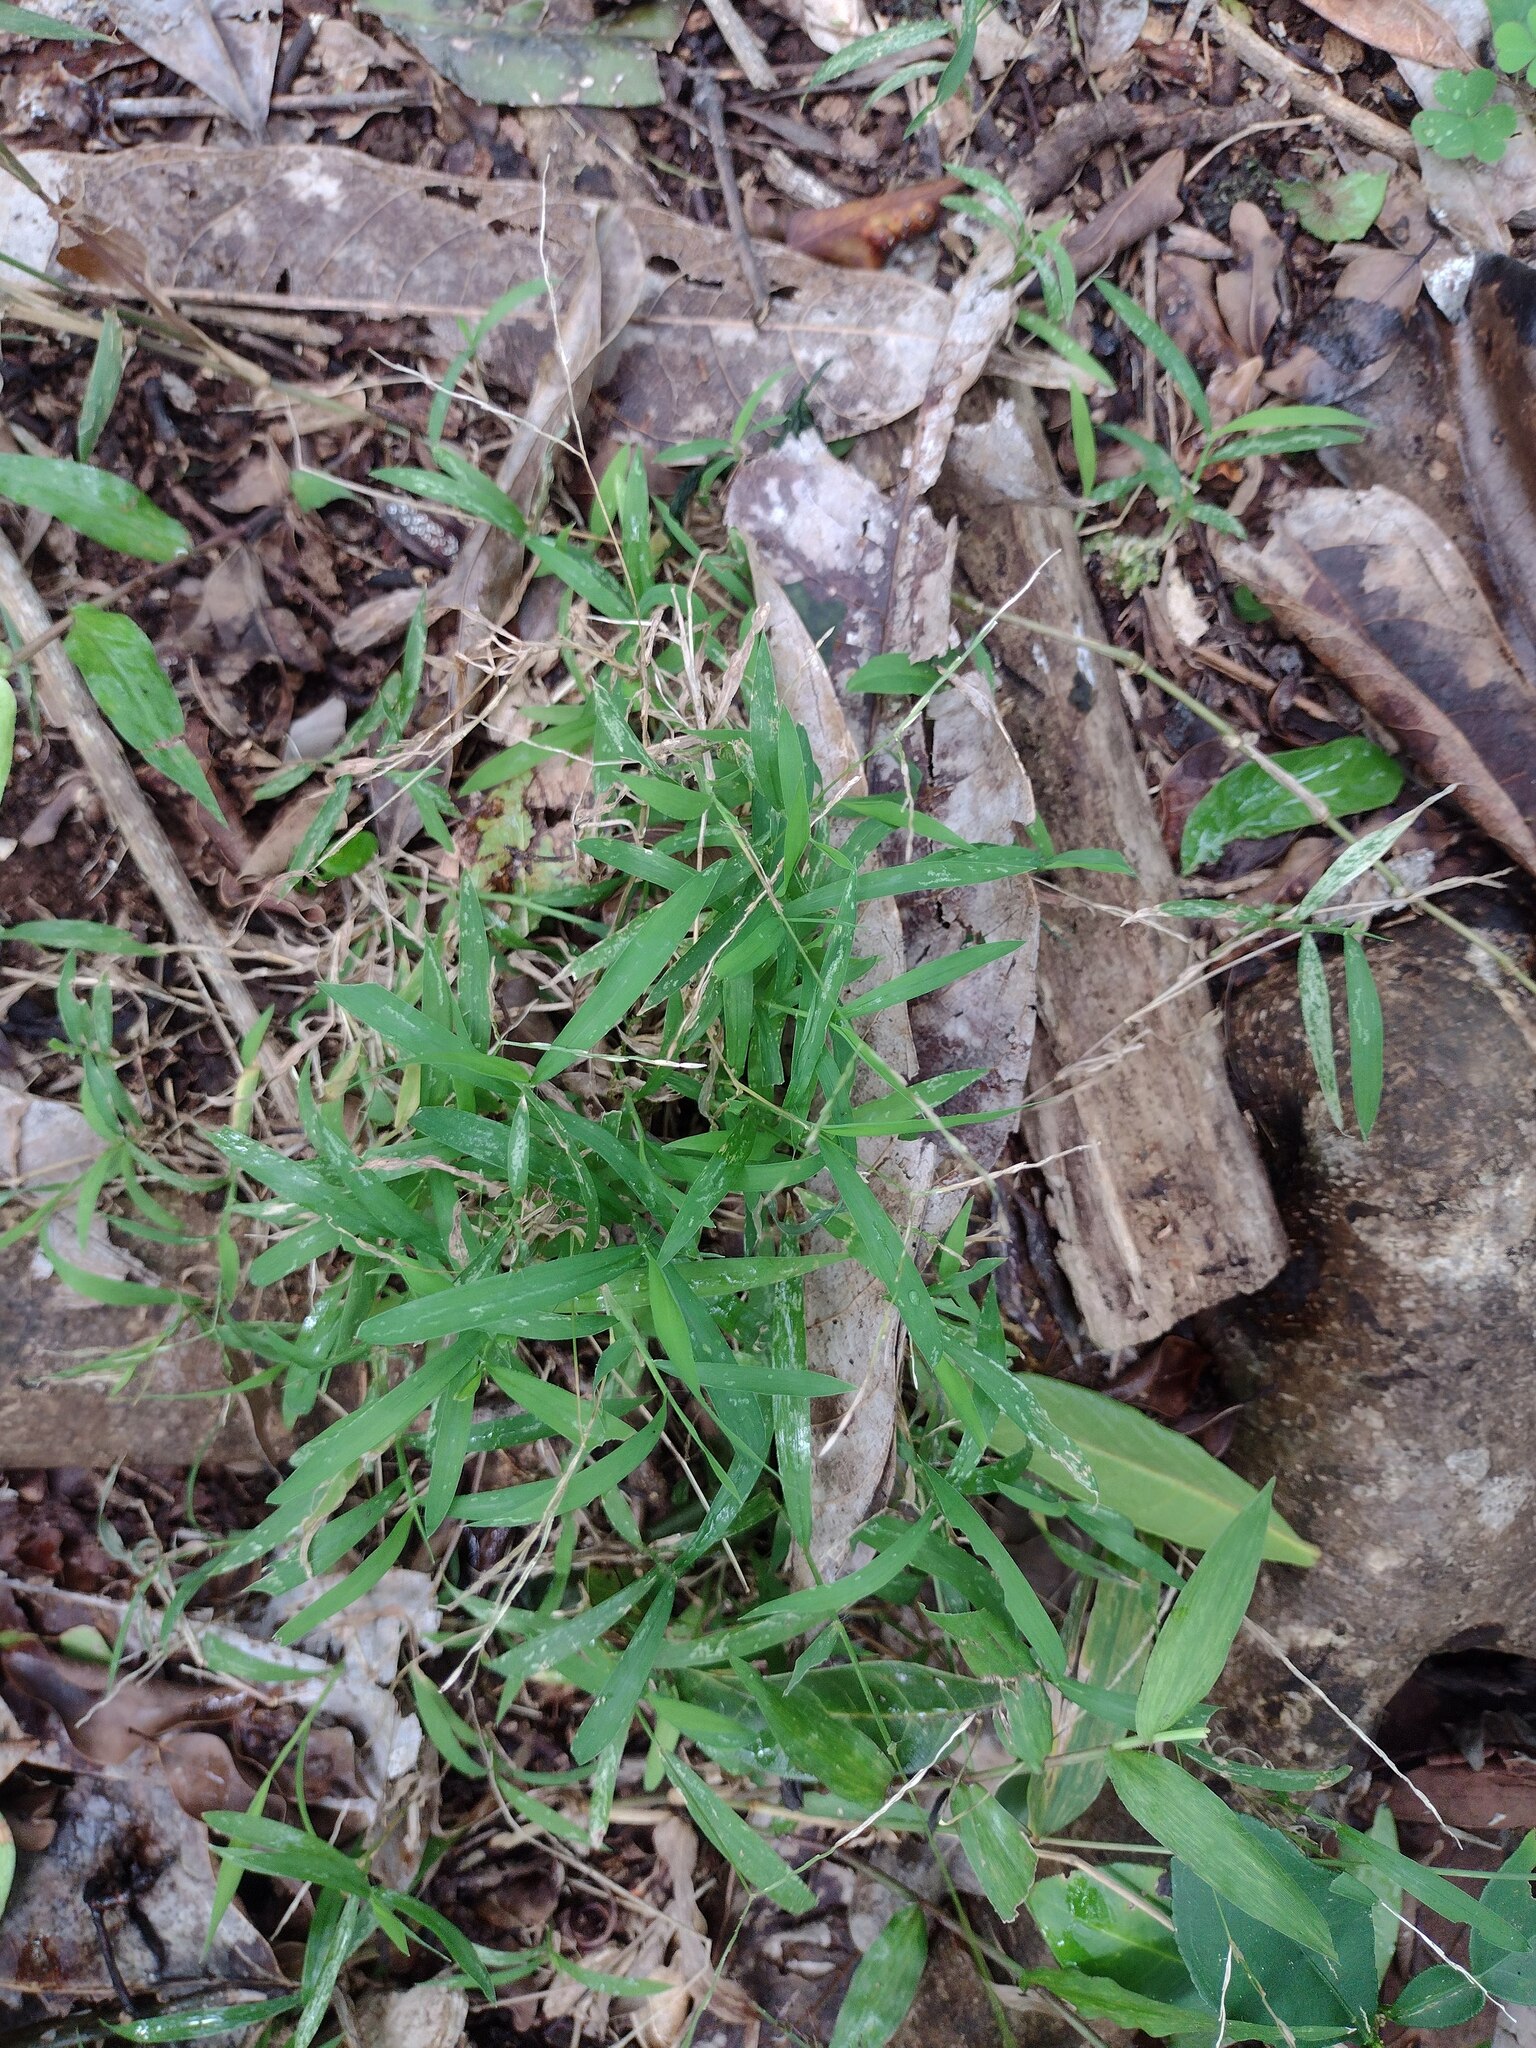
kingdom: Plantae
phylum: Tracheophyta
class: Liliopsida
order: Poales
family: Poaceae
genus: Digitaria
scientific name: Digitaria radicosa
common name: Trailing crabgrass
